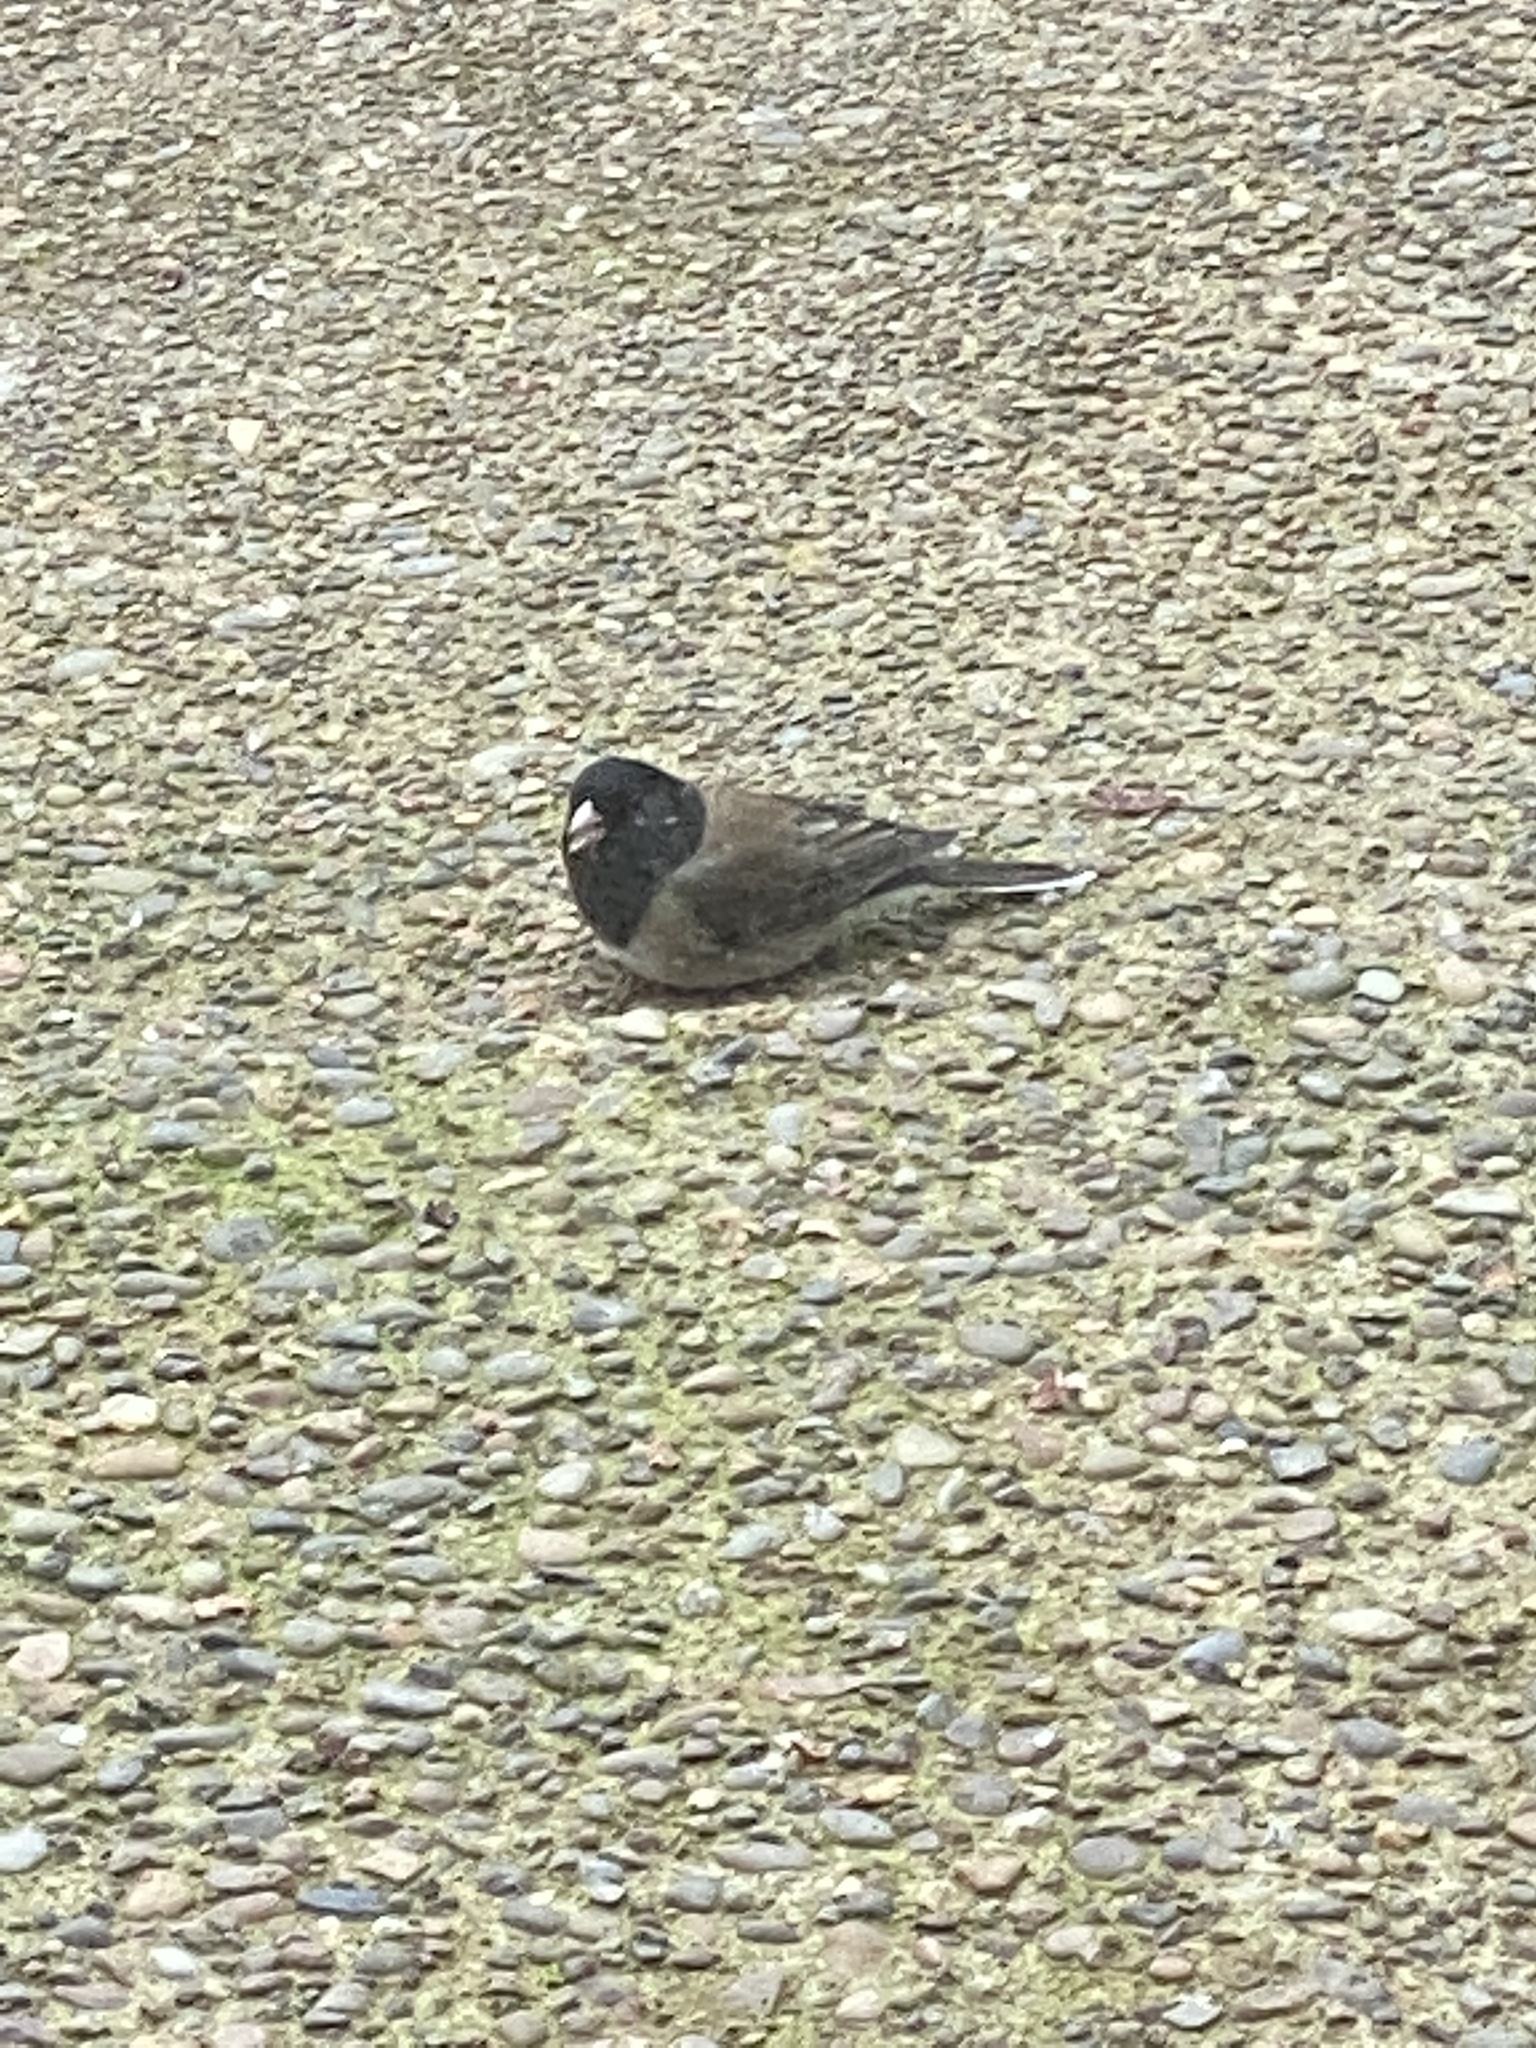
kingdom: Animalia
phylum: Chordata
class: Aves
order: Passeriformes
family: Passerellidae
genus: Junco
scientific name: Junco hyemalis
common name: Dark-eyed junco
